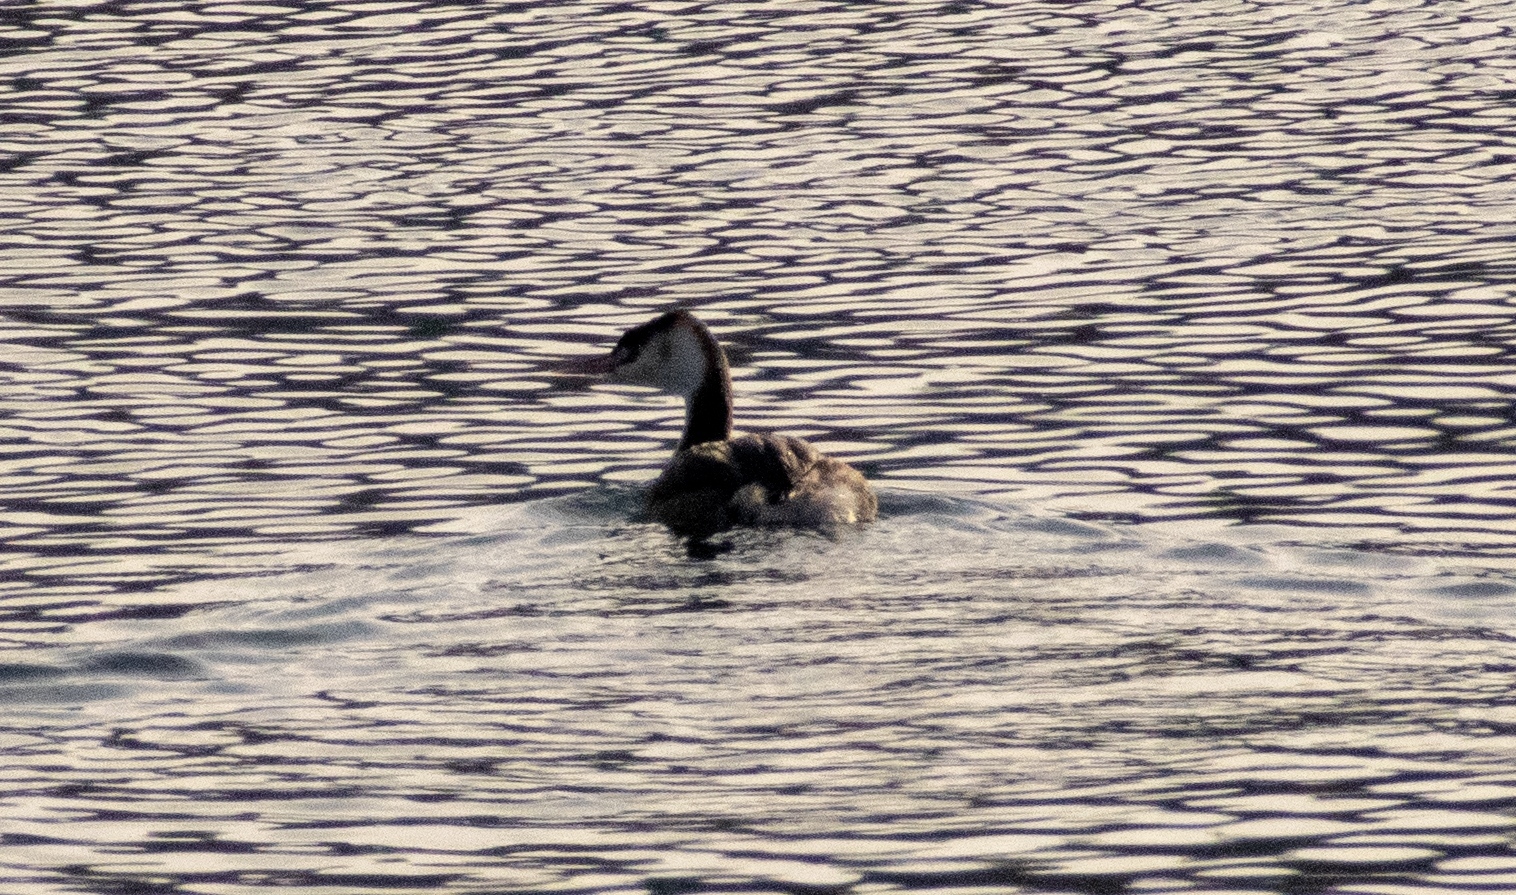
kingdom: Animalia
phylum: Chordata
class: Aves
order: Podicipediformes
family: Podicipedidae
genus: Podiceps
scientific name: Podiceps cristatus
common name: Great crested grebe
